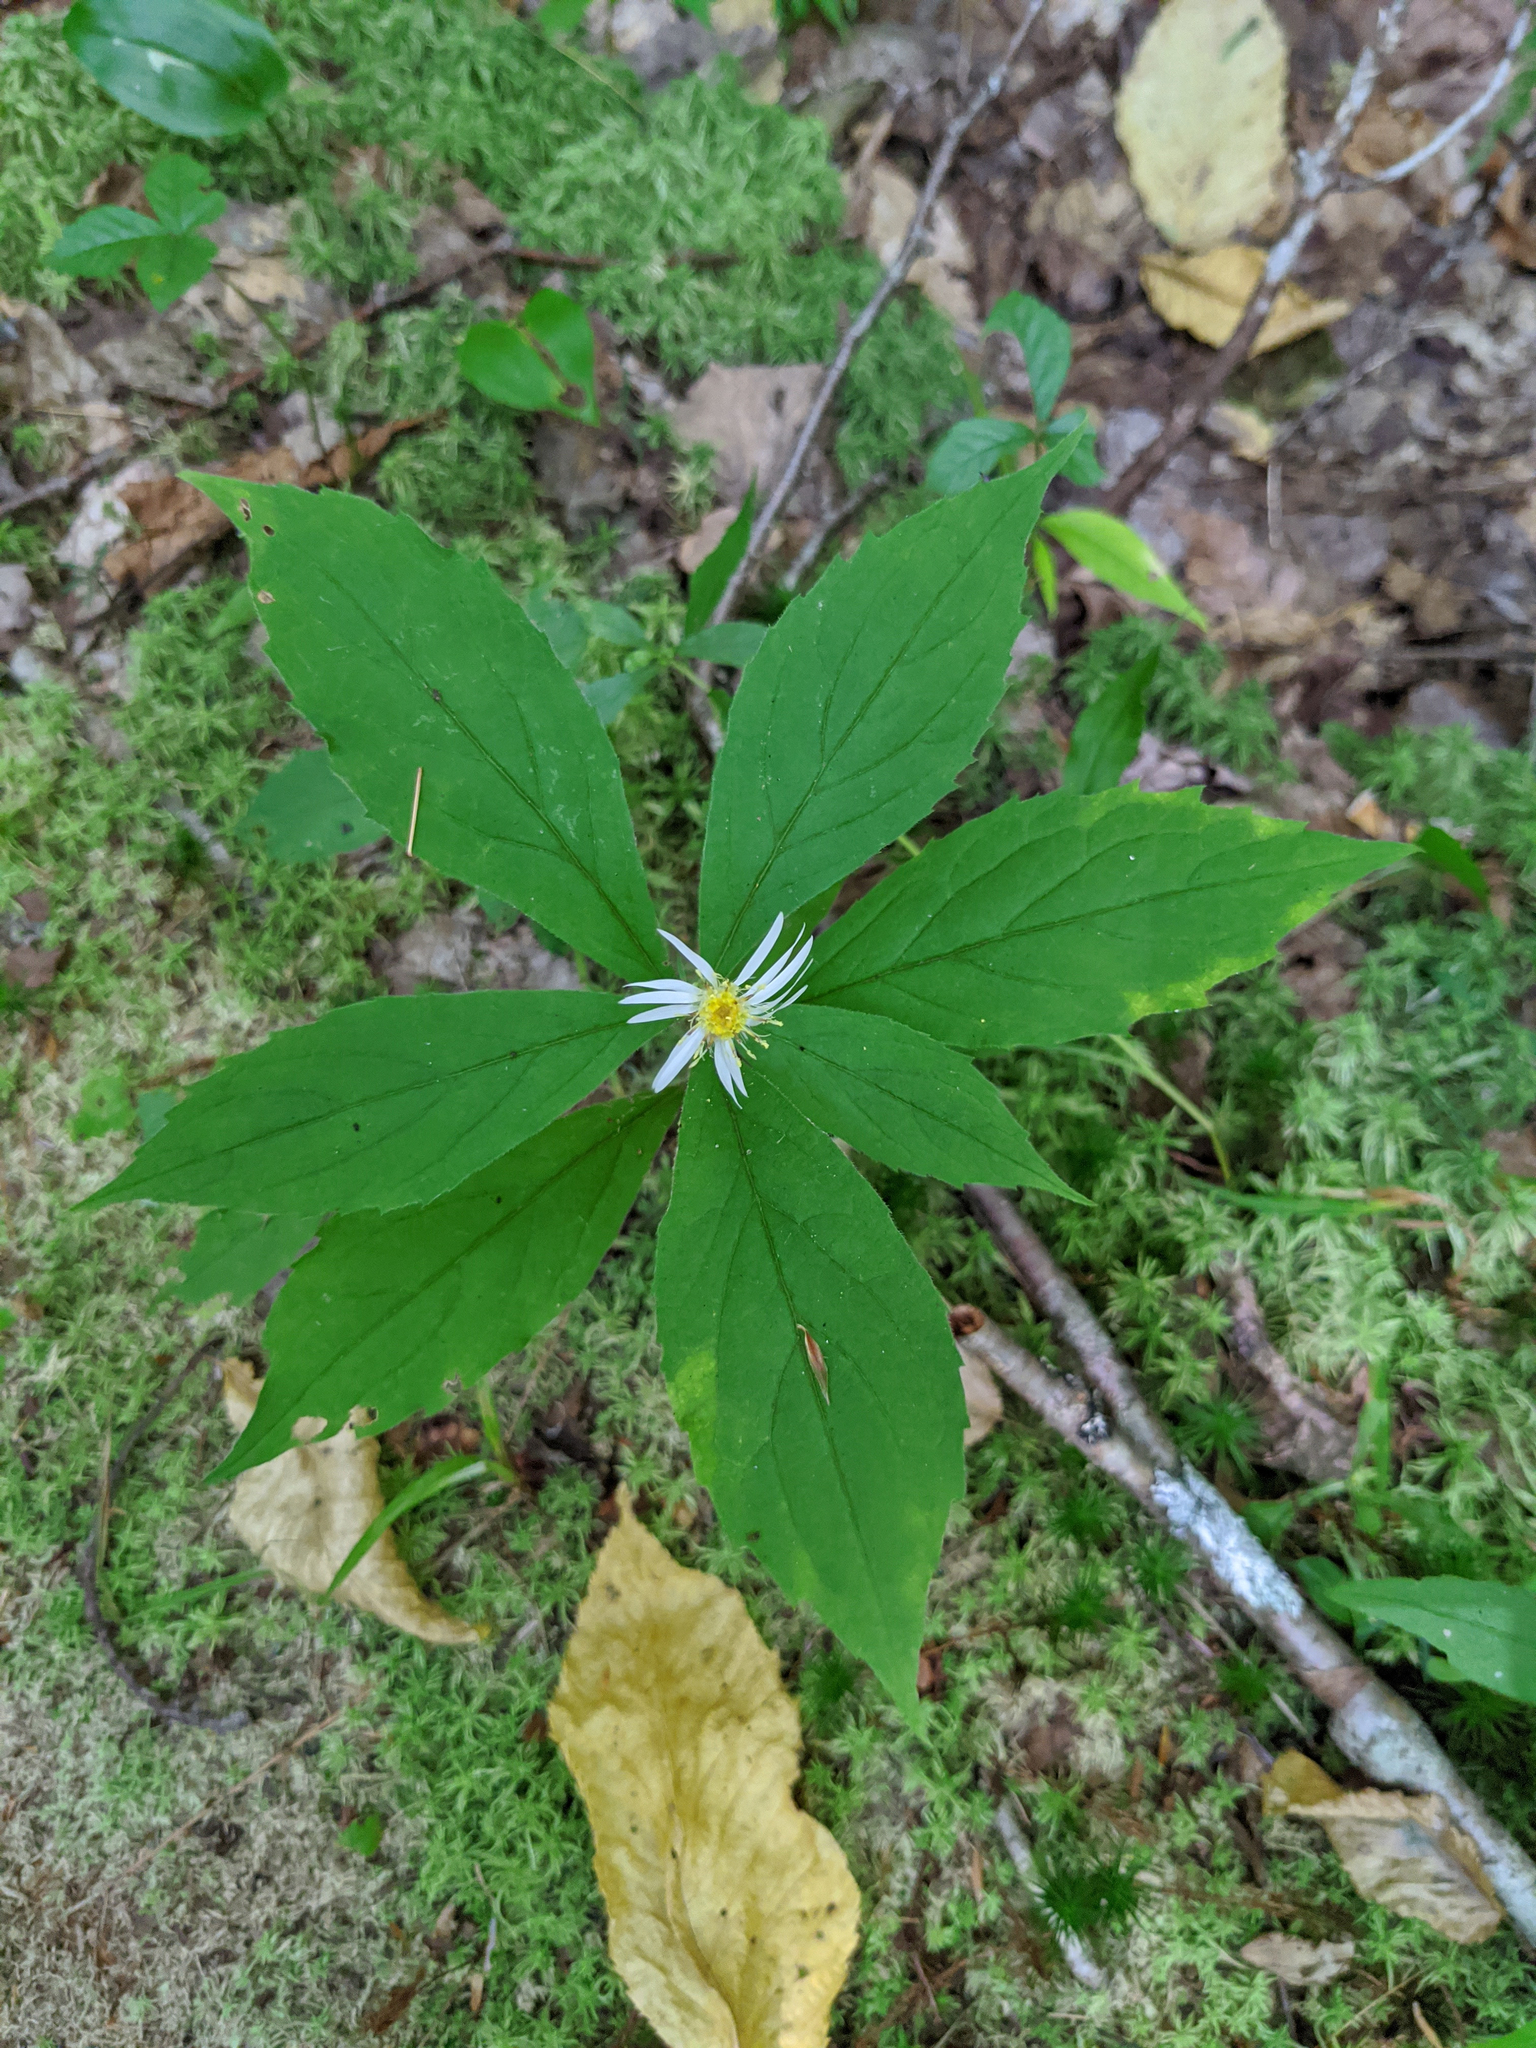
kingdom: Plantae
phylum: Tracheophyta
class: Magnoliopsida
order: Asterales
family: Asteraceae
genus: Oclemena
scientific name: Oclemena acuminata
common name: Mountain aster
